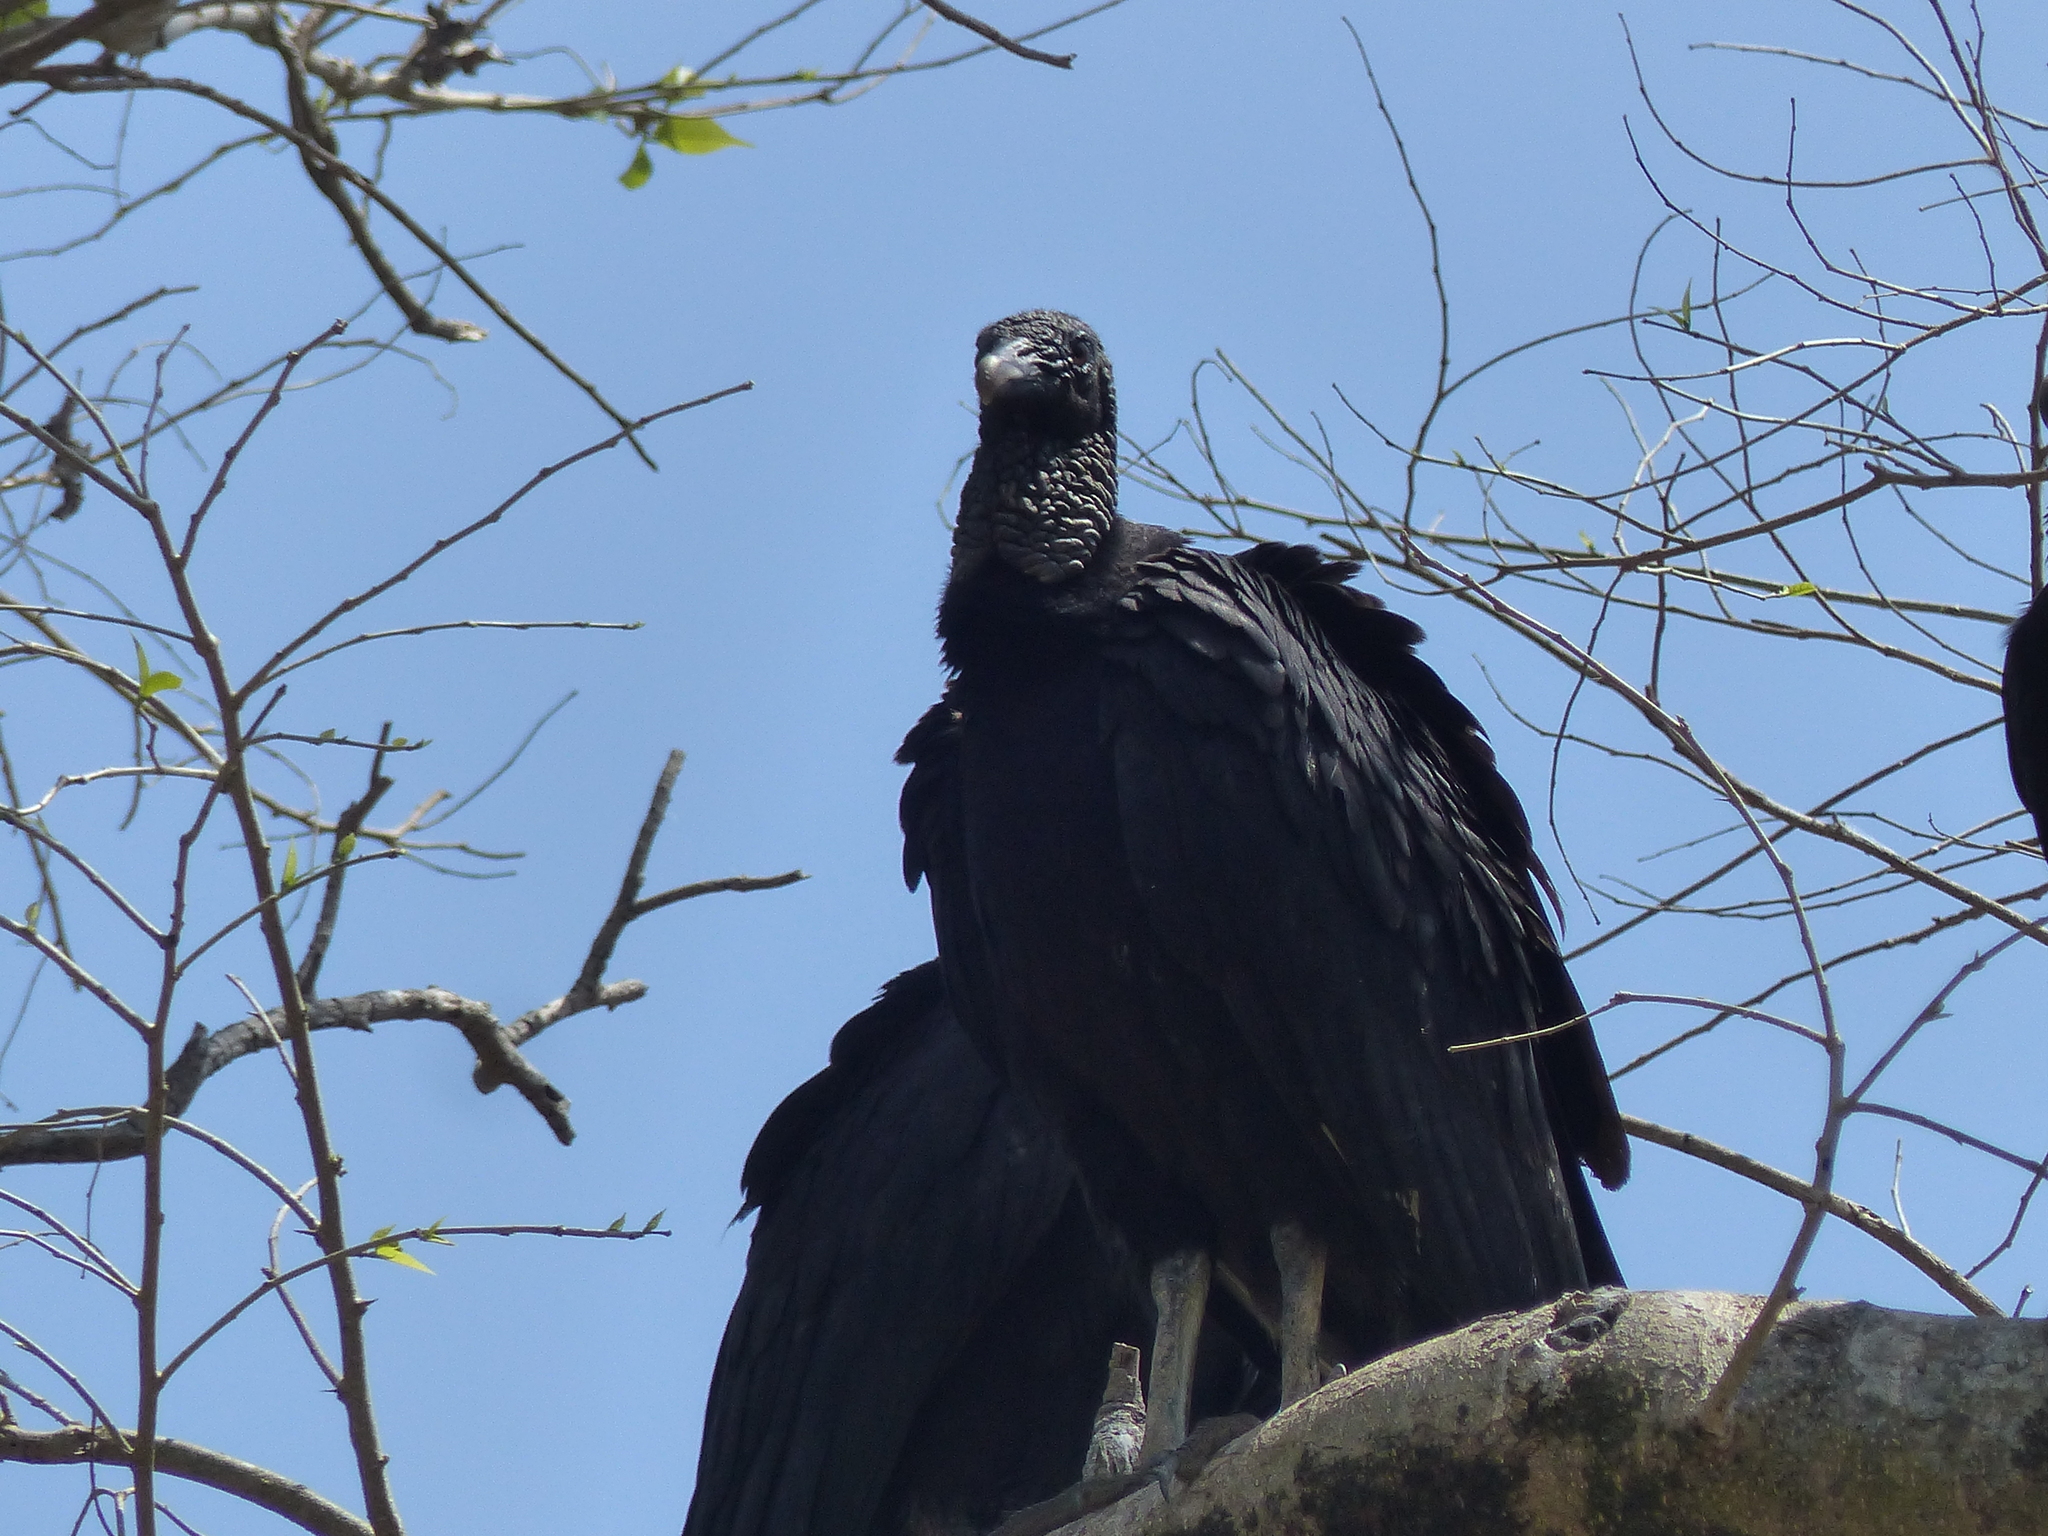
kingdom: Animalia
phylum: Chordata
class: Aves
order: Accipitriformes
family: Cathartidae
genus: Coragyps
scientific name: Coragyps atratus
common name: Black vulture
